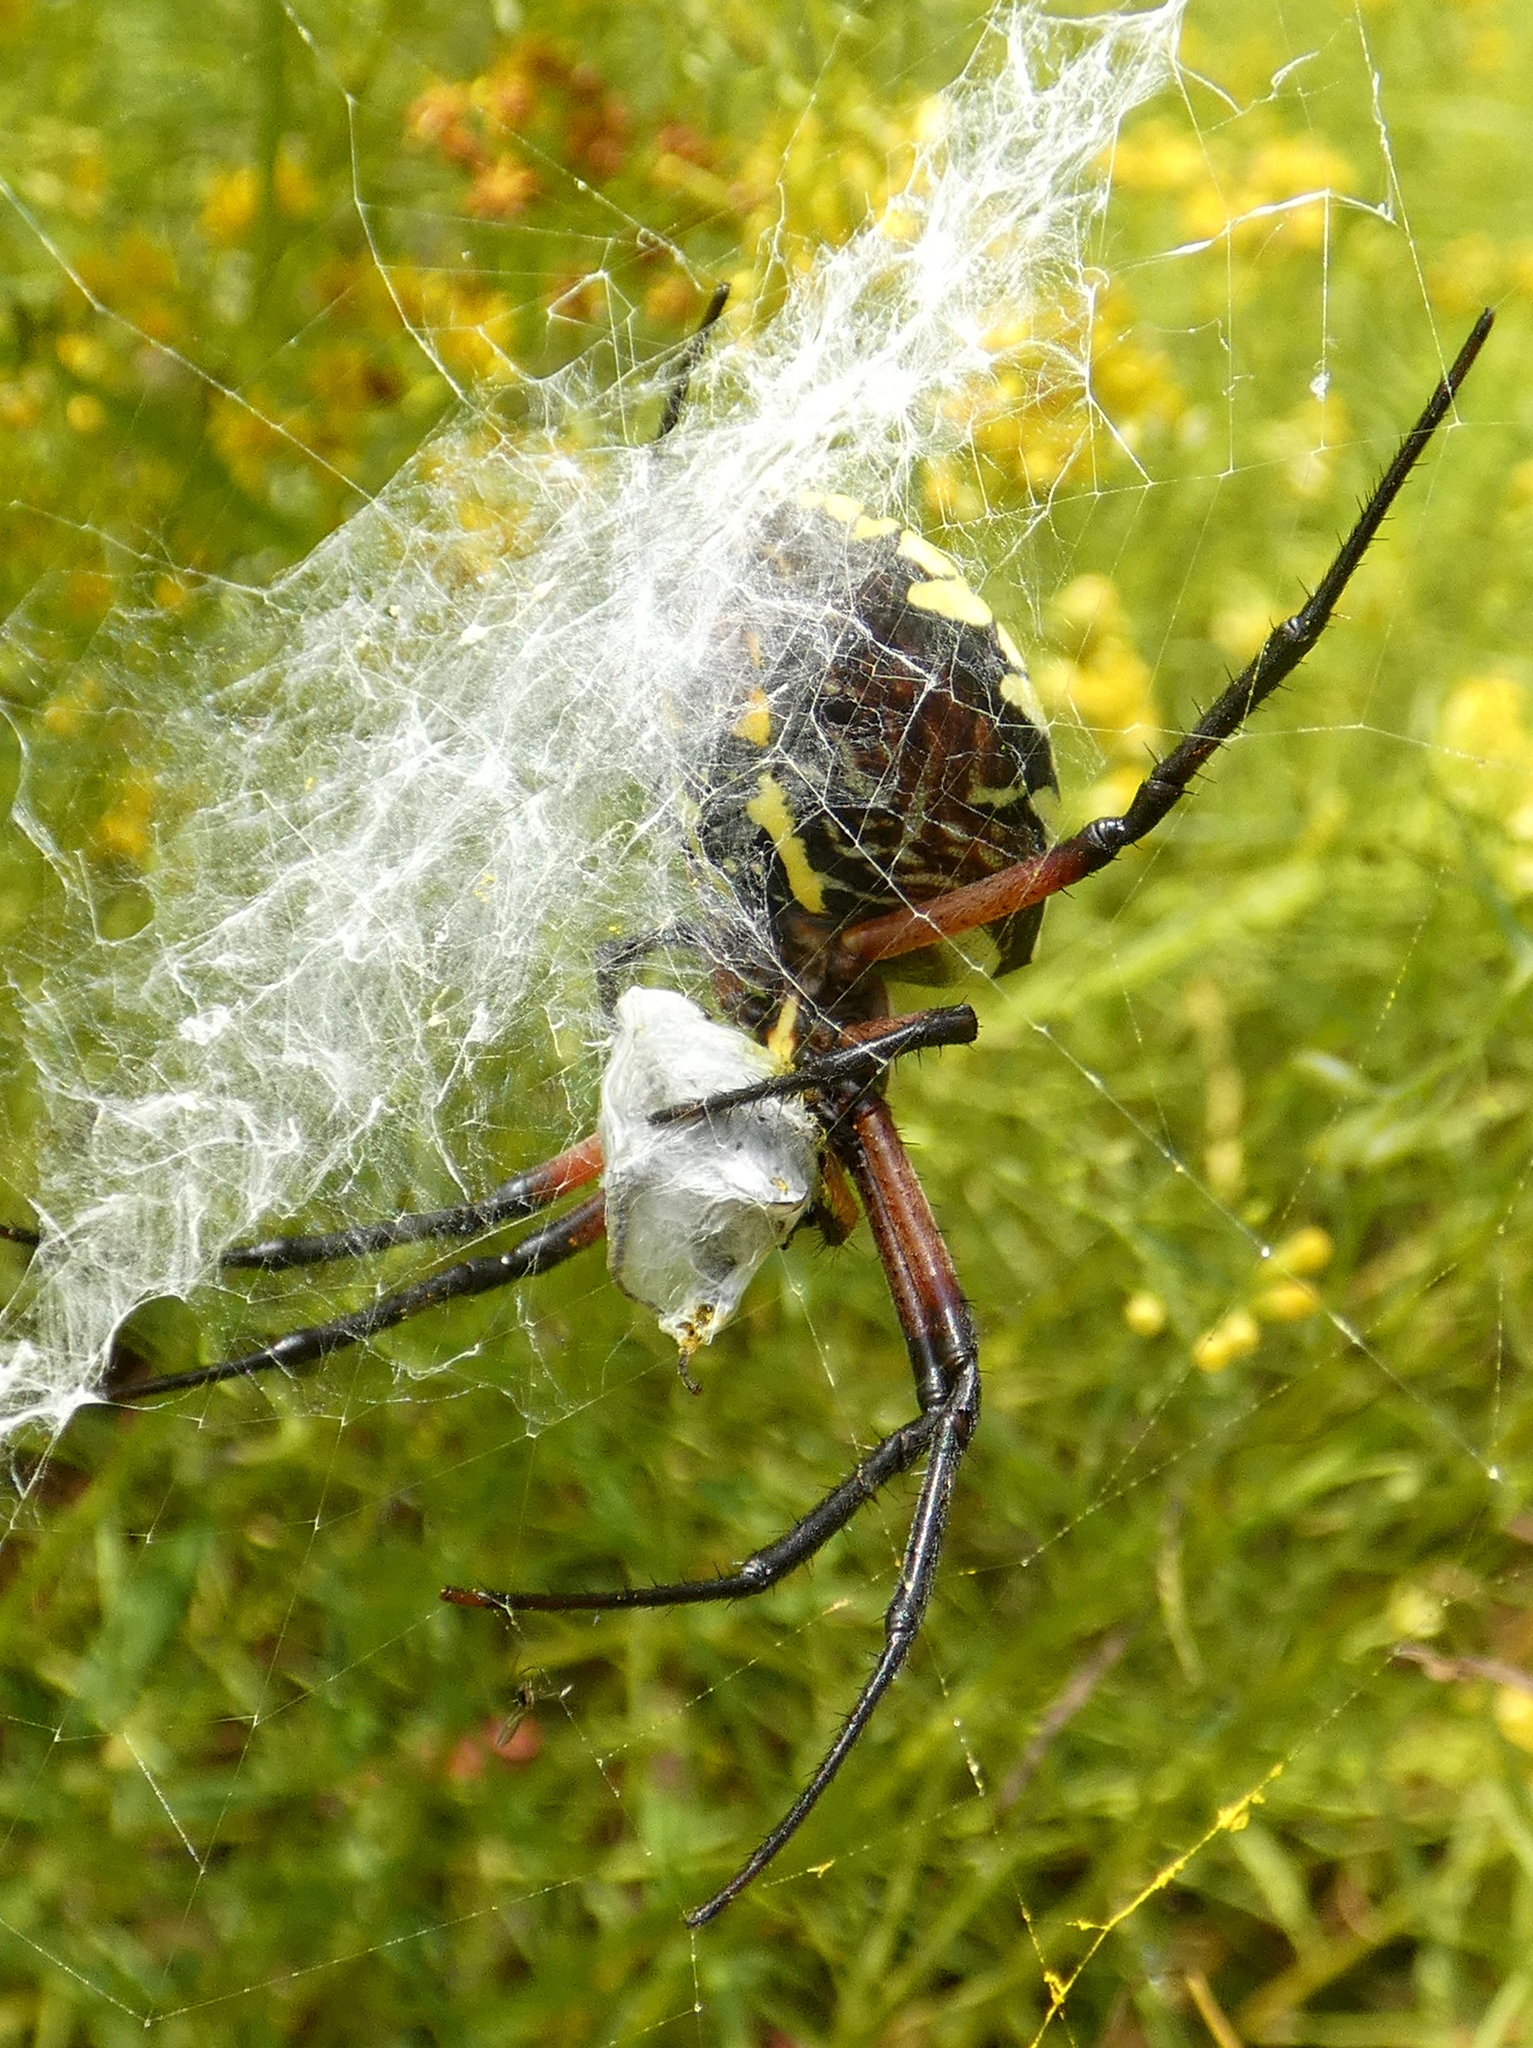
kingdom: Animalia
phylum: Arthropoda
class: Arachnida
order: Araneae
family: Araneidae
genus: Argiope
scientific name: Argiope aurantia
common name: Orb weavers
